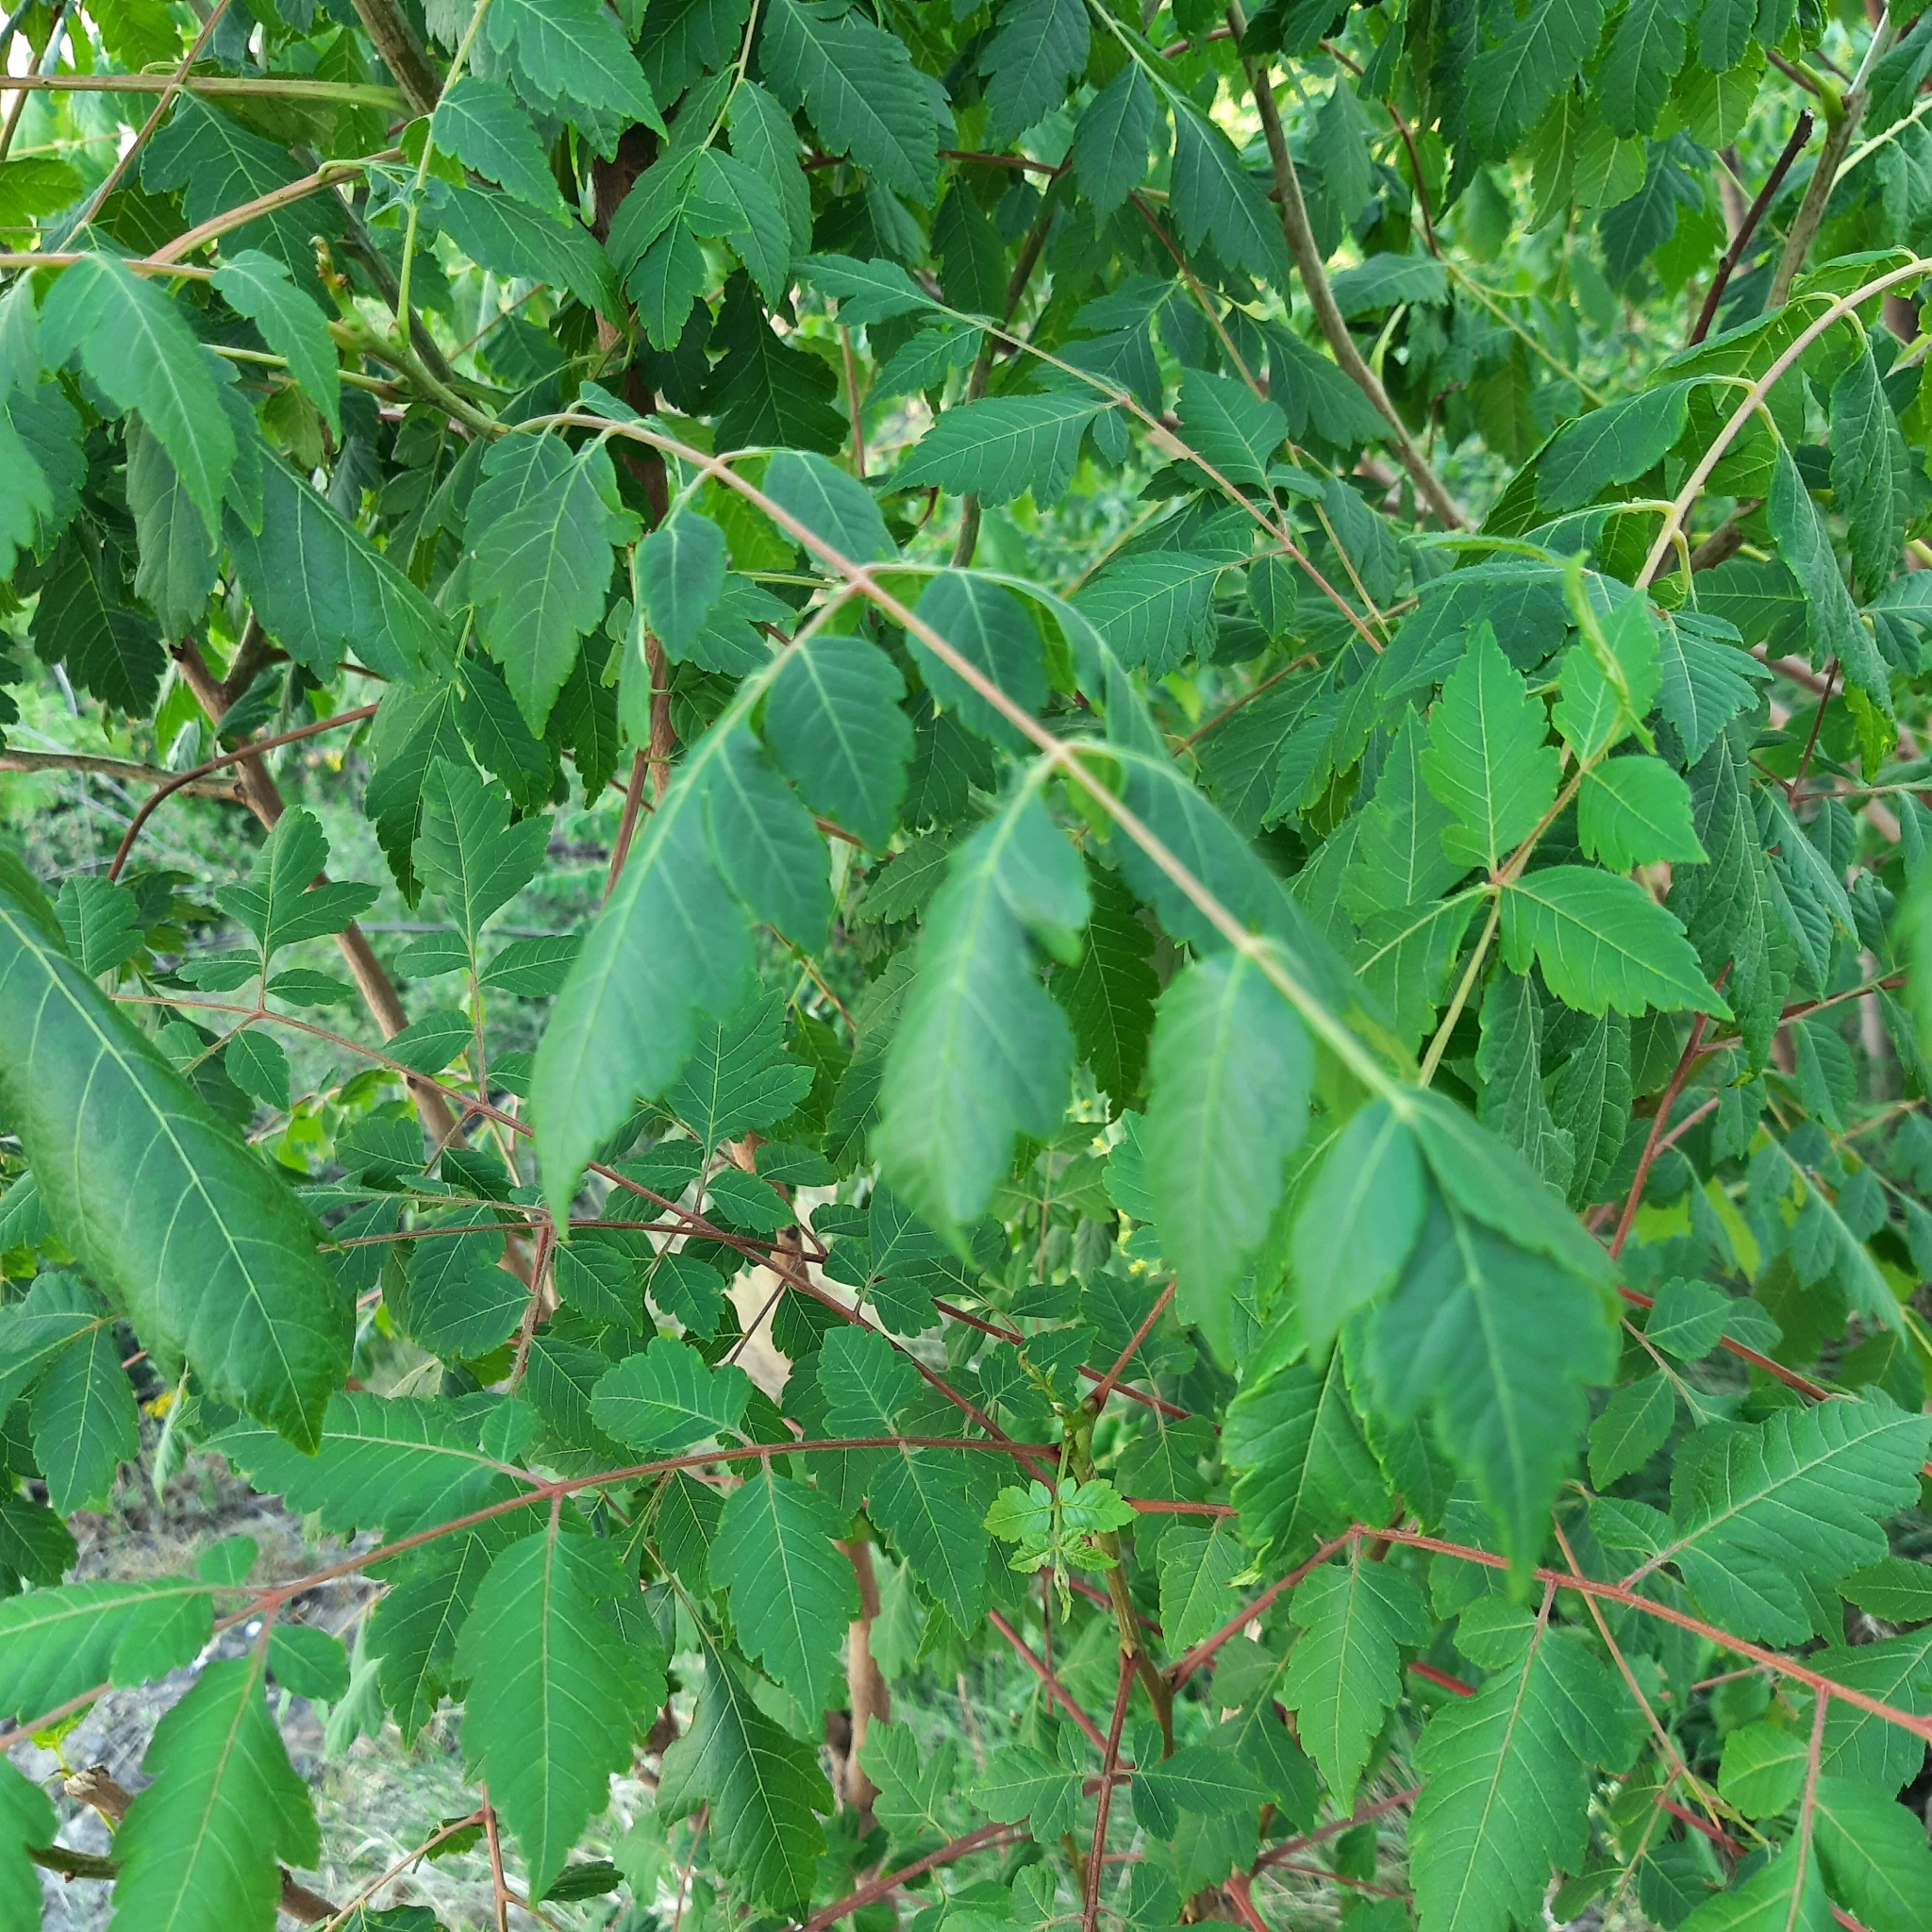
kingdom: Plantae
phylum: Tracheophyta
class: Magnoliopsida
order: Sapindales
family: Sapindaceae
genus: Koelreuteria
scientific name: Koelreuteria paniculata
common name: Pride-of-india
